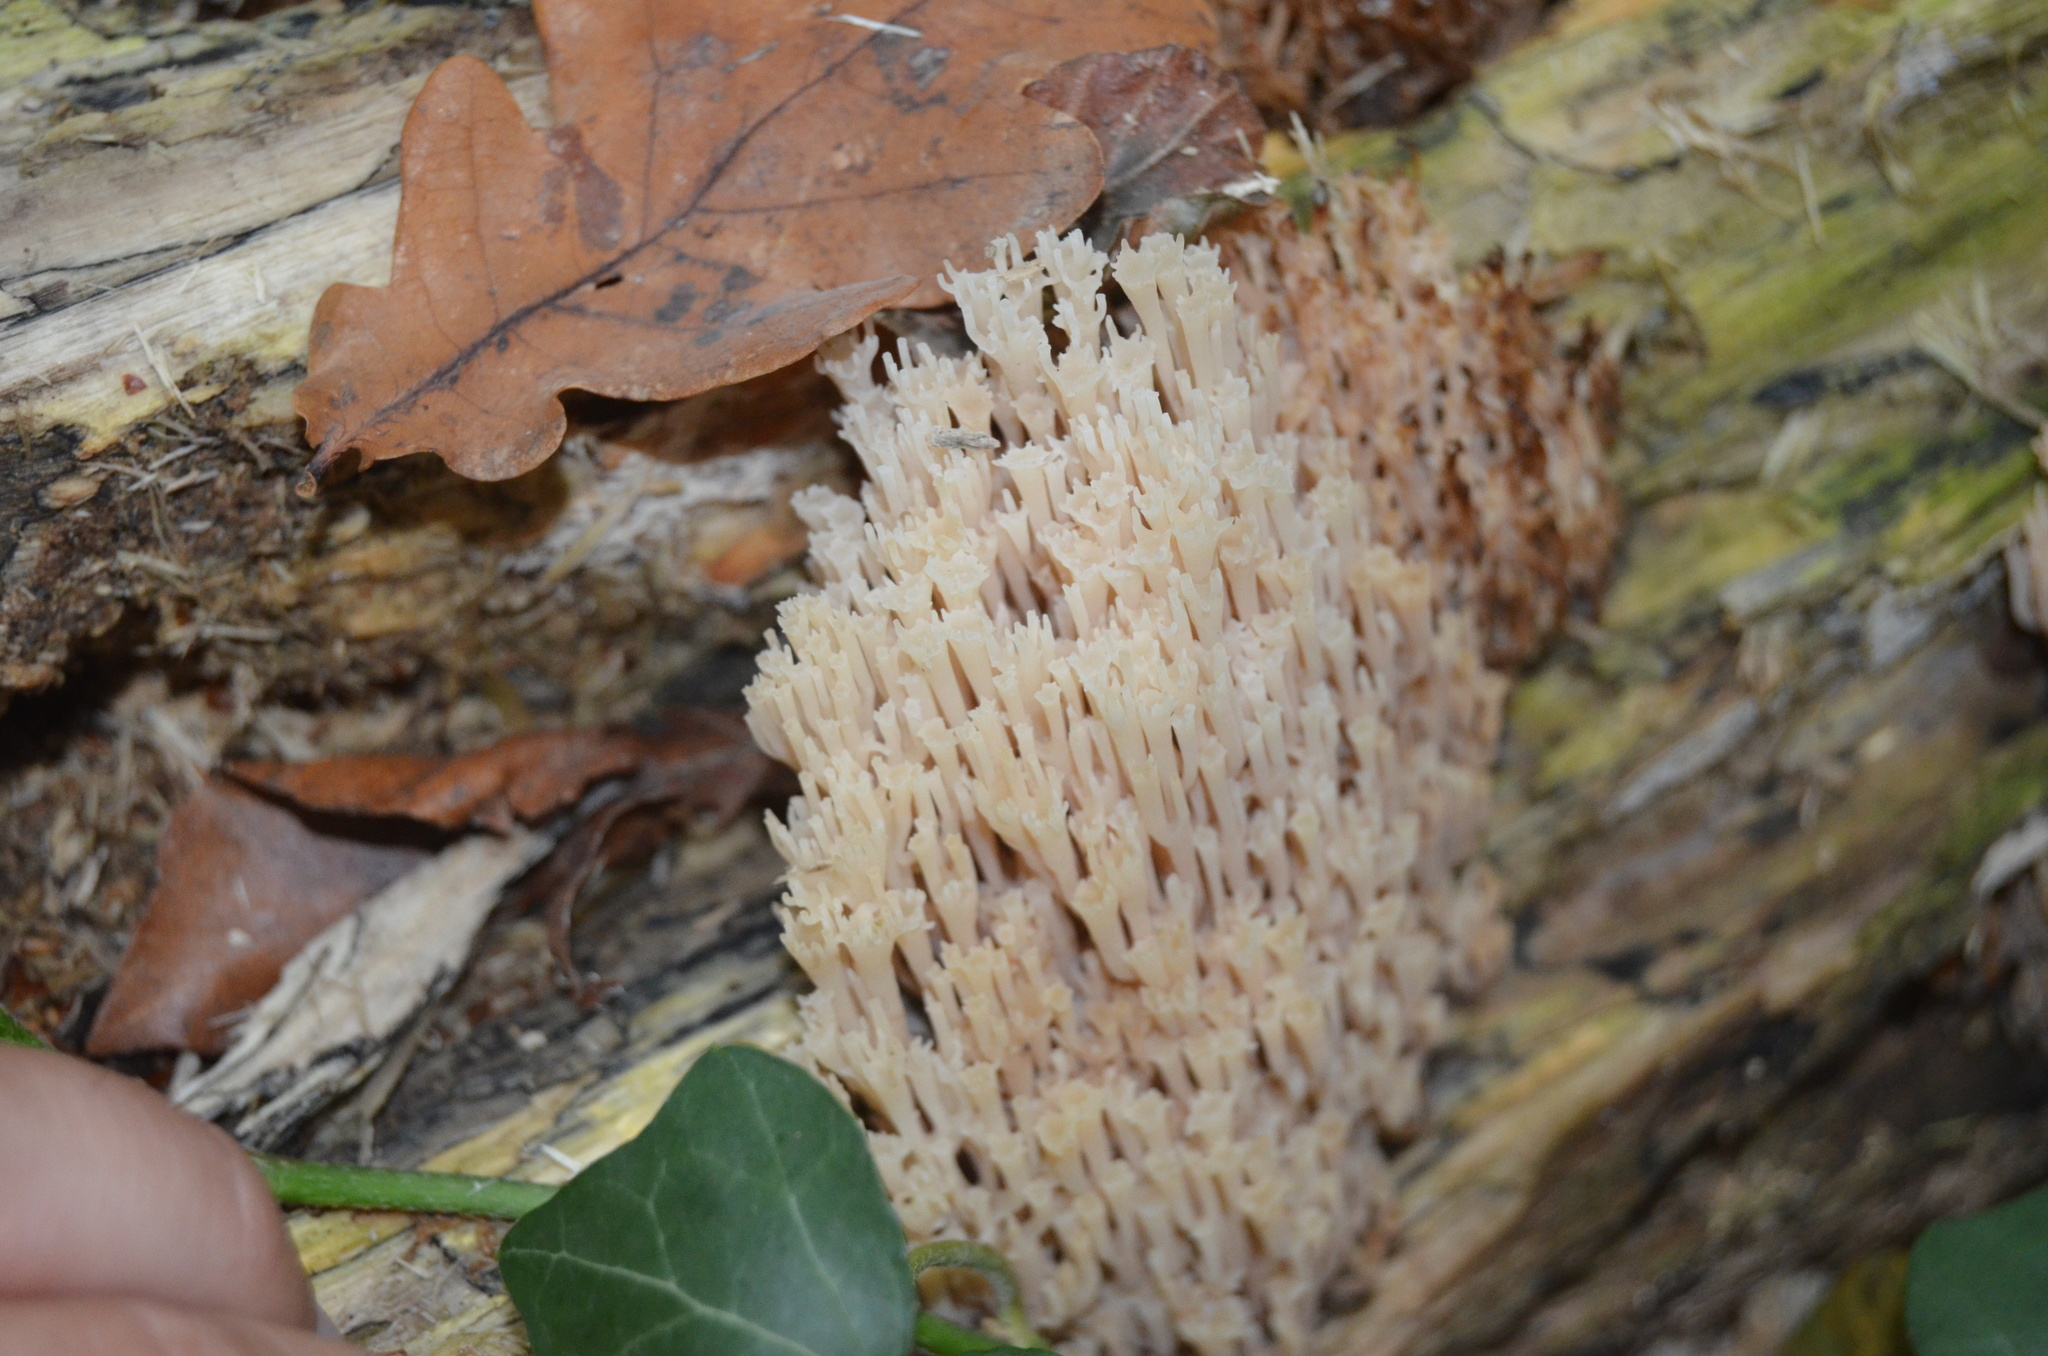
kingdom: Fungi
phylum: Basidiomycota
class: Agaricomycetes
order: Russulales
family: Auriscalpiaceae
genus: Artomyces
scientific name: Artomyces pyxidatus
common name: Crown-tipped coral fungus
